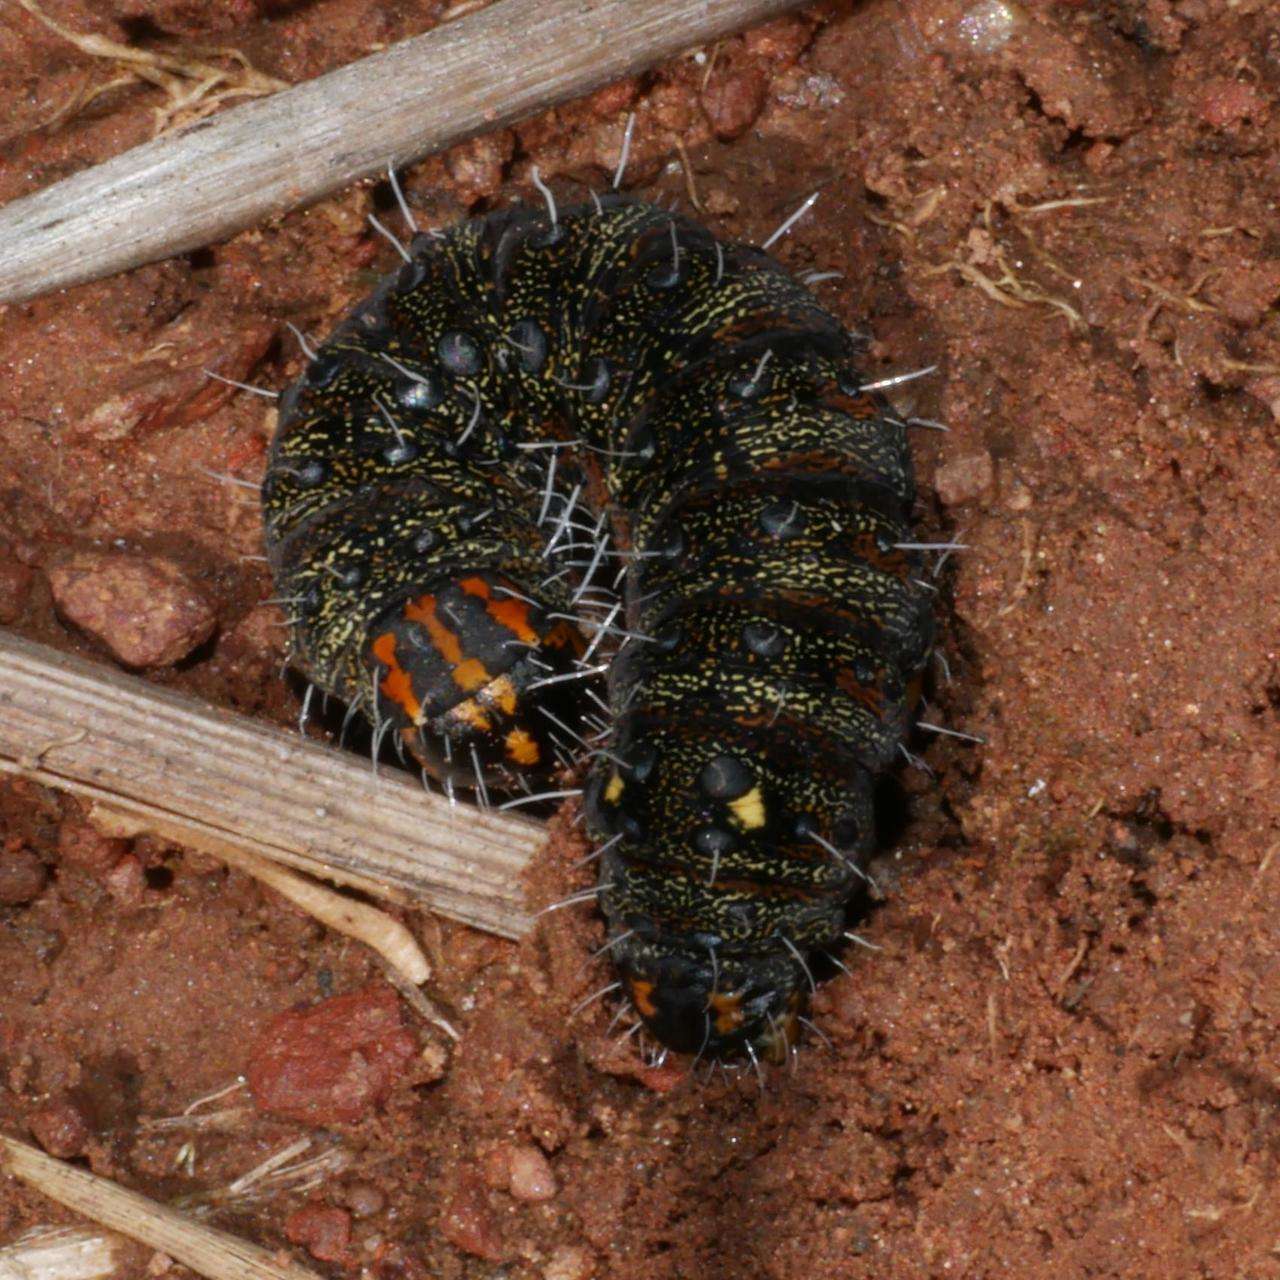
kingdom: Animalia
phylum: Arthropoda
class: Insecta
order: Lepidoptera
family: Noctuidae
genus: Apina
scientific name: Apina callisto
